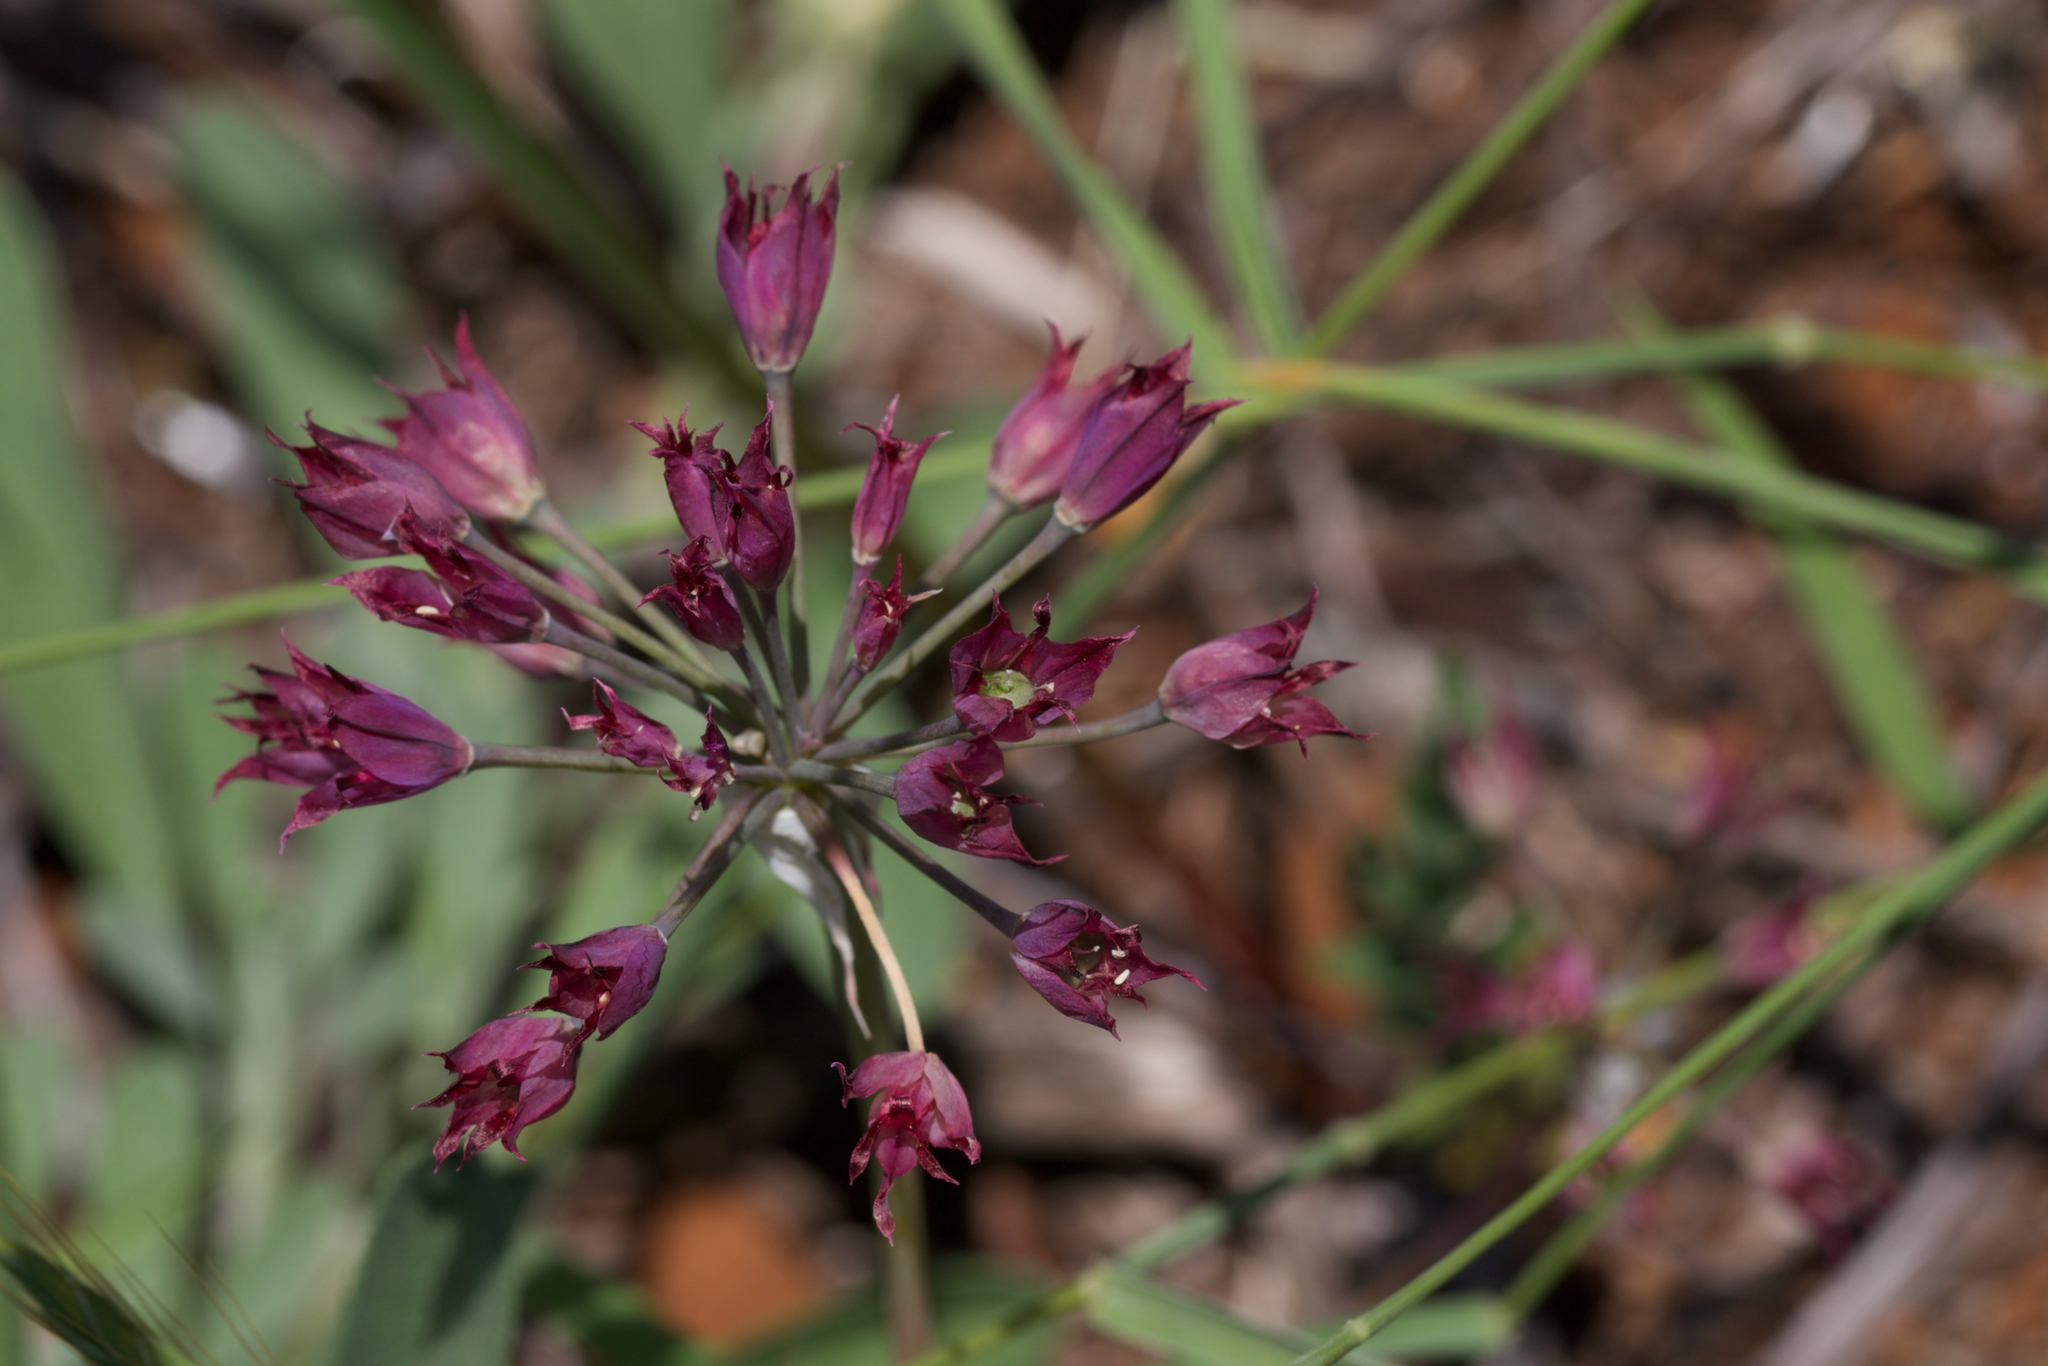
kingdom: Plantae
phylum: Tracheophyta
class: Liliopsida
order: Asparagales
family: Amaryllidaceae
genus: Allium
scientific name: Allium peninsulare
